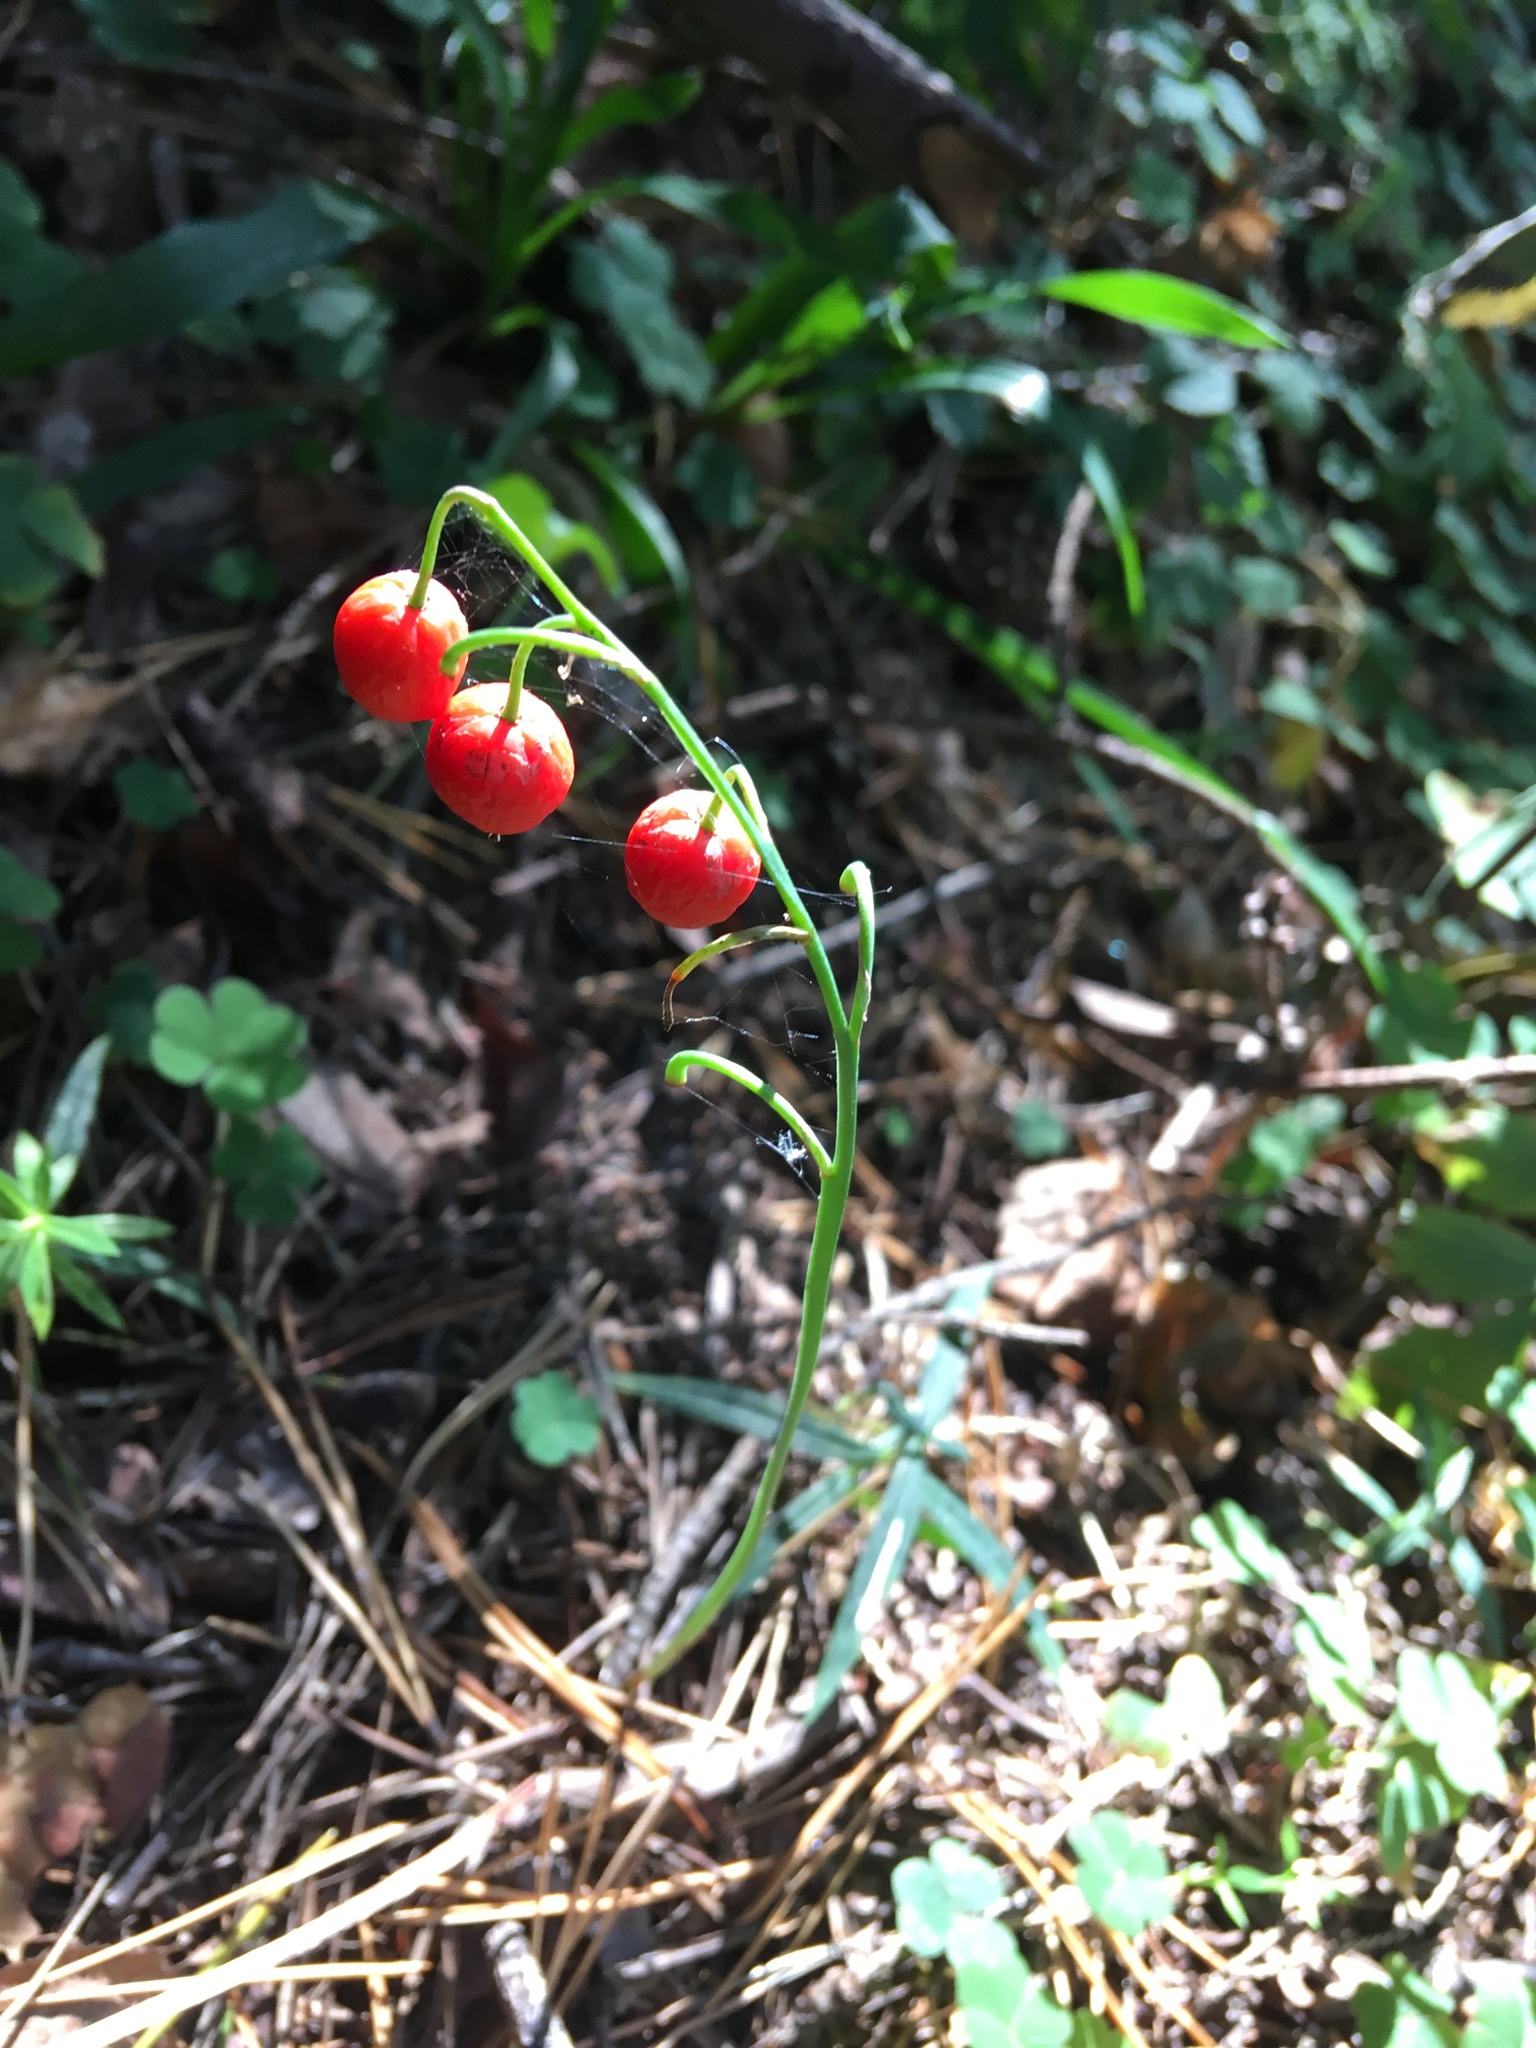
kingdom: Plantae
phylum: Tracheophyta
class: Liliopsida
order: Asparagales
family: Asparagaceae
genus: Convallaria
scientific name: Convallaria majalis
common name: Lily-of-the-valley
